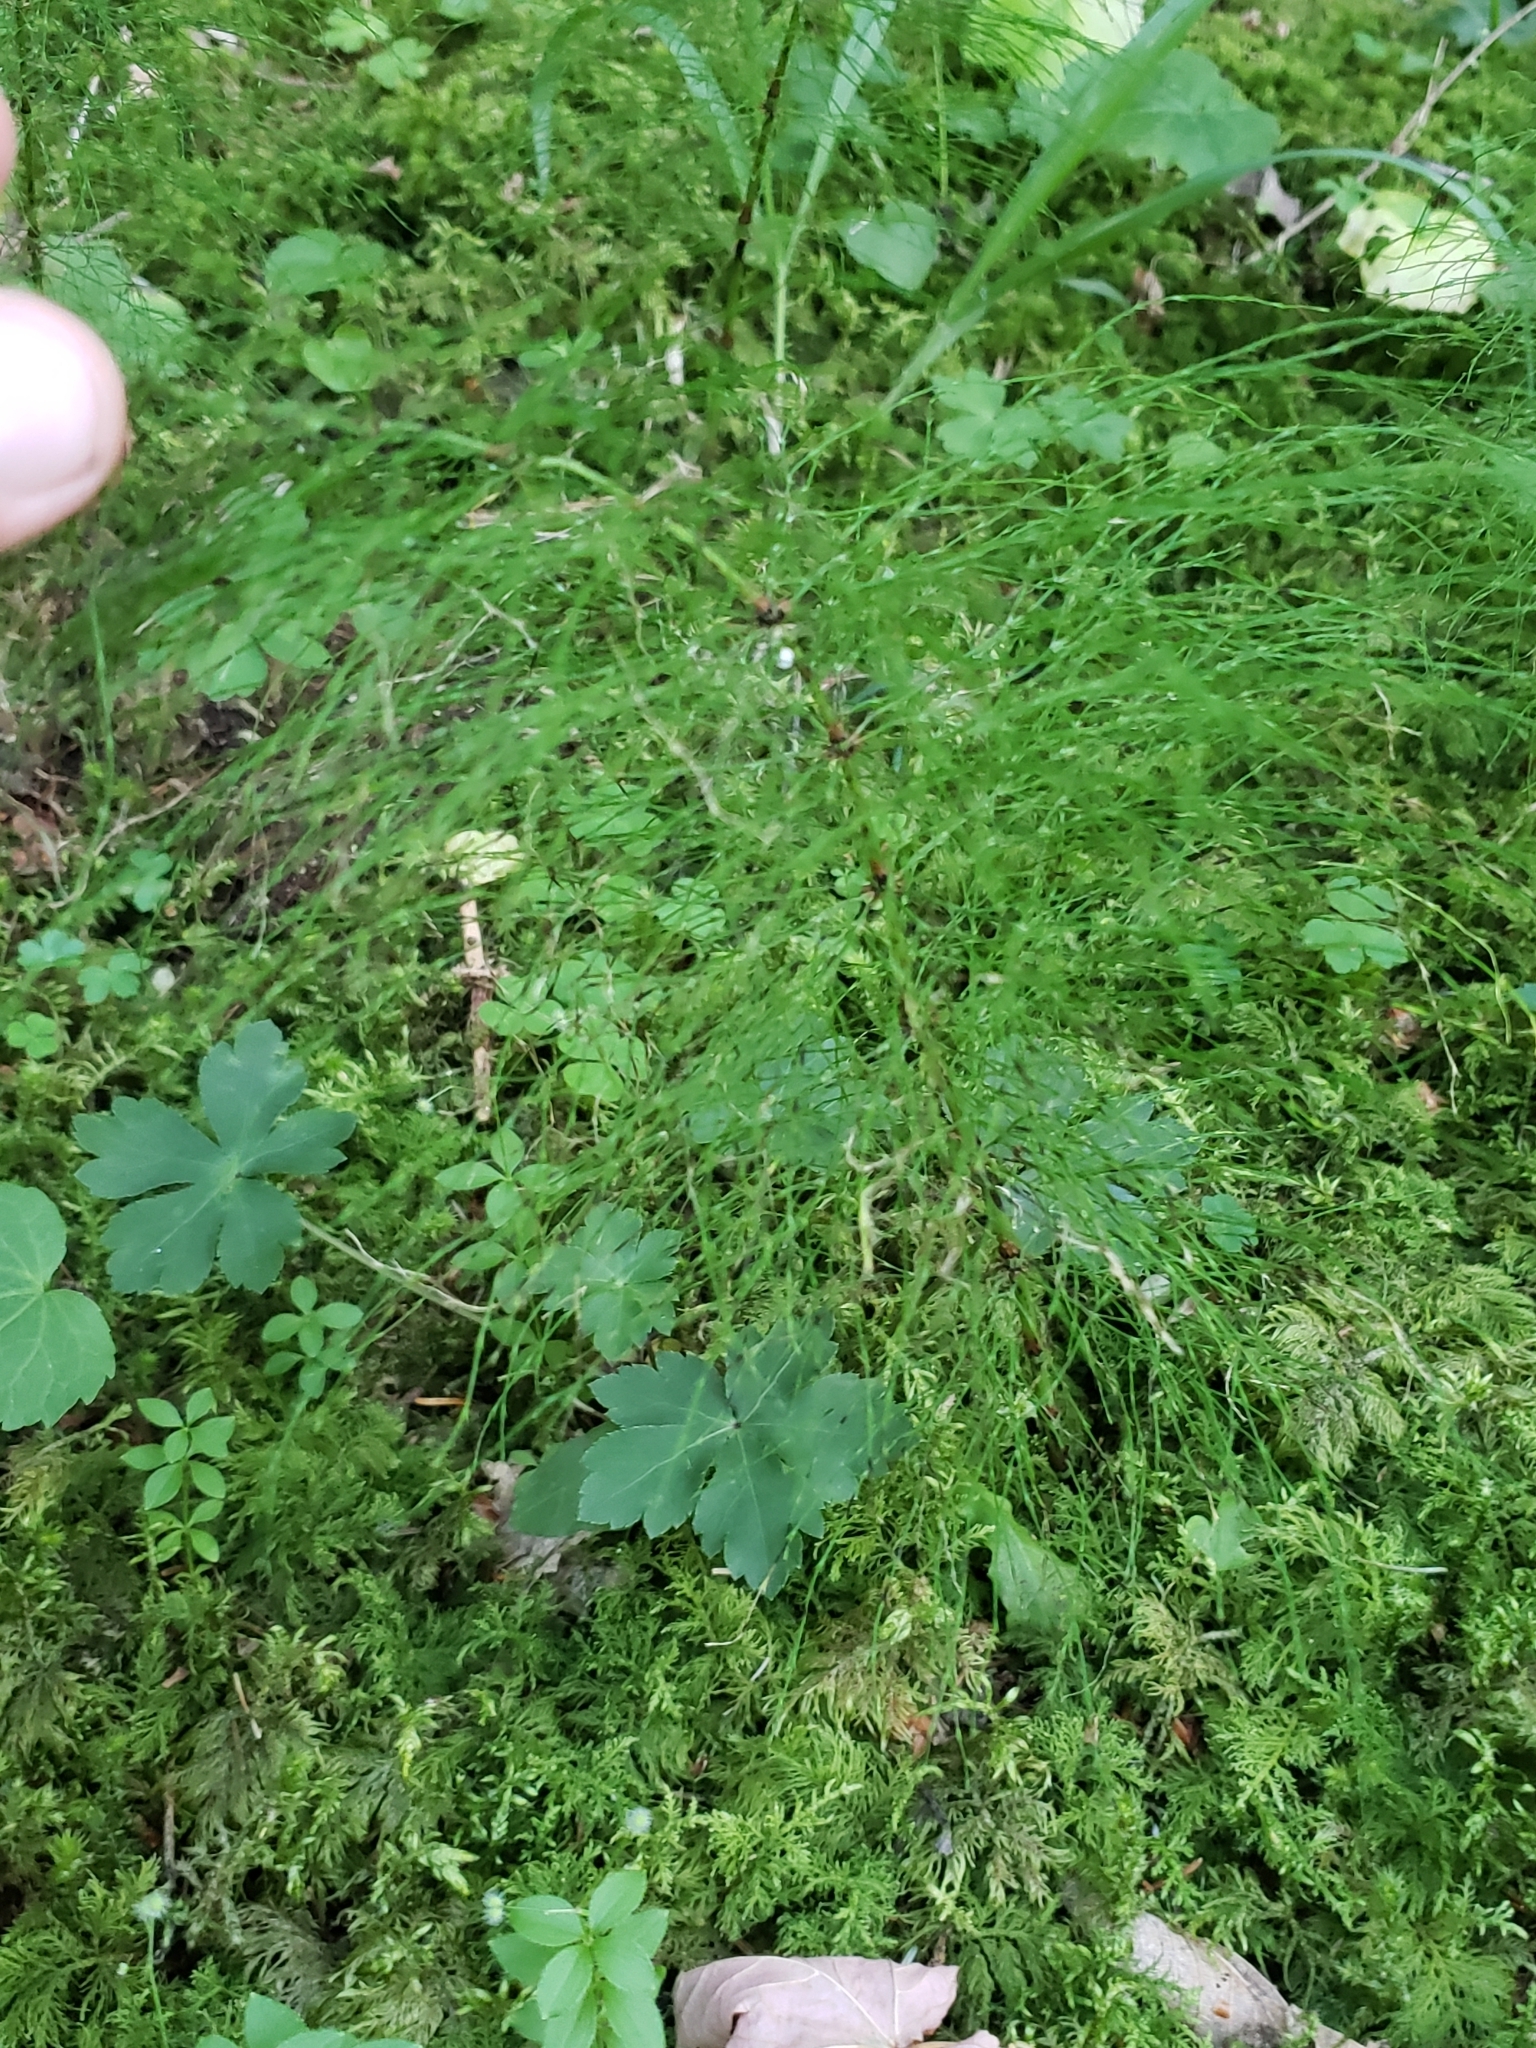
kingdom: Plantae
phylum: Tracheophyta
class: Polypodiopsida
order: Equisetales
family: Equisetaceae
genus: Equisetum
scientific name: Equisetum sylvaticum
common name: Wood horsetail
